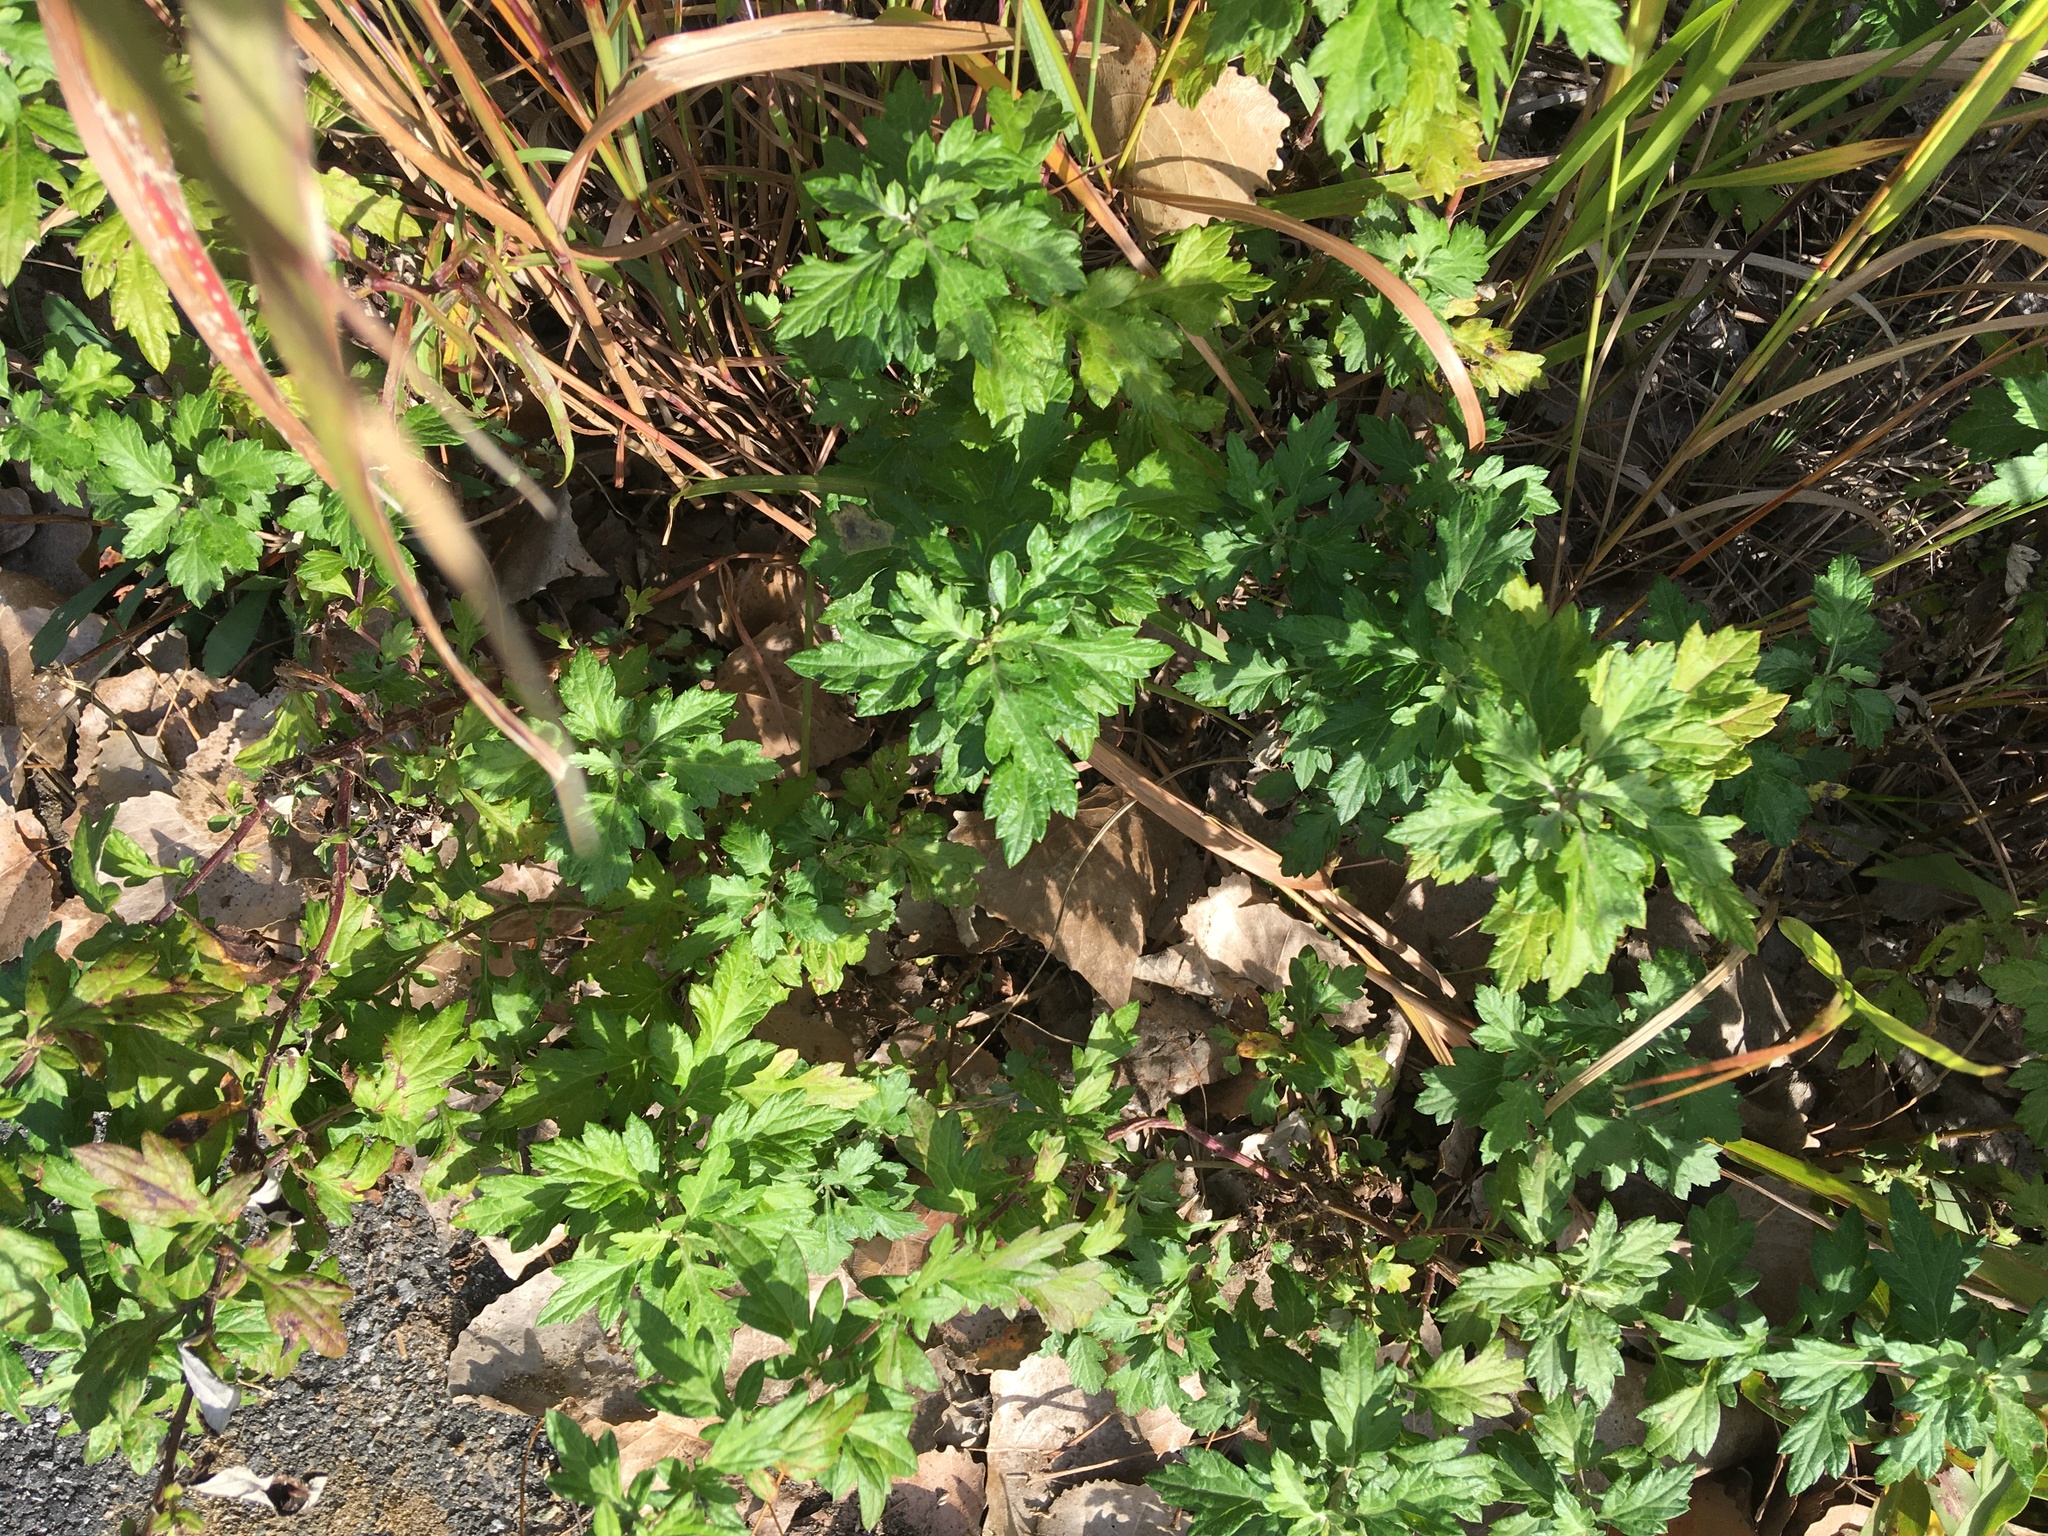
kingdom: Plantae
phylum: Tracheophyta
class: Magnoliopsida
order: Asterales
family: Asteraceae
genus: Artemisia
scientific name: Artemisia vulgaris
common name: Mugwort
